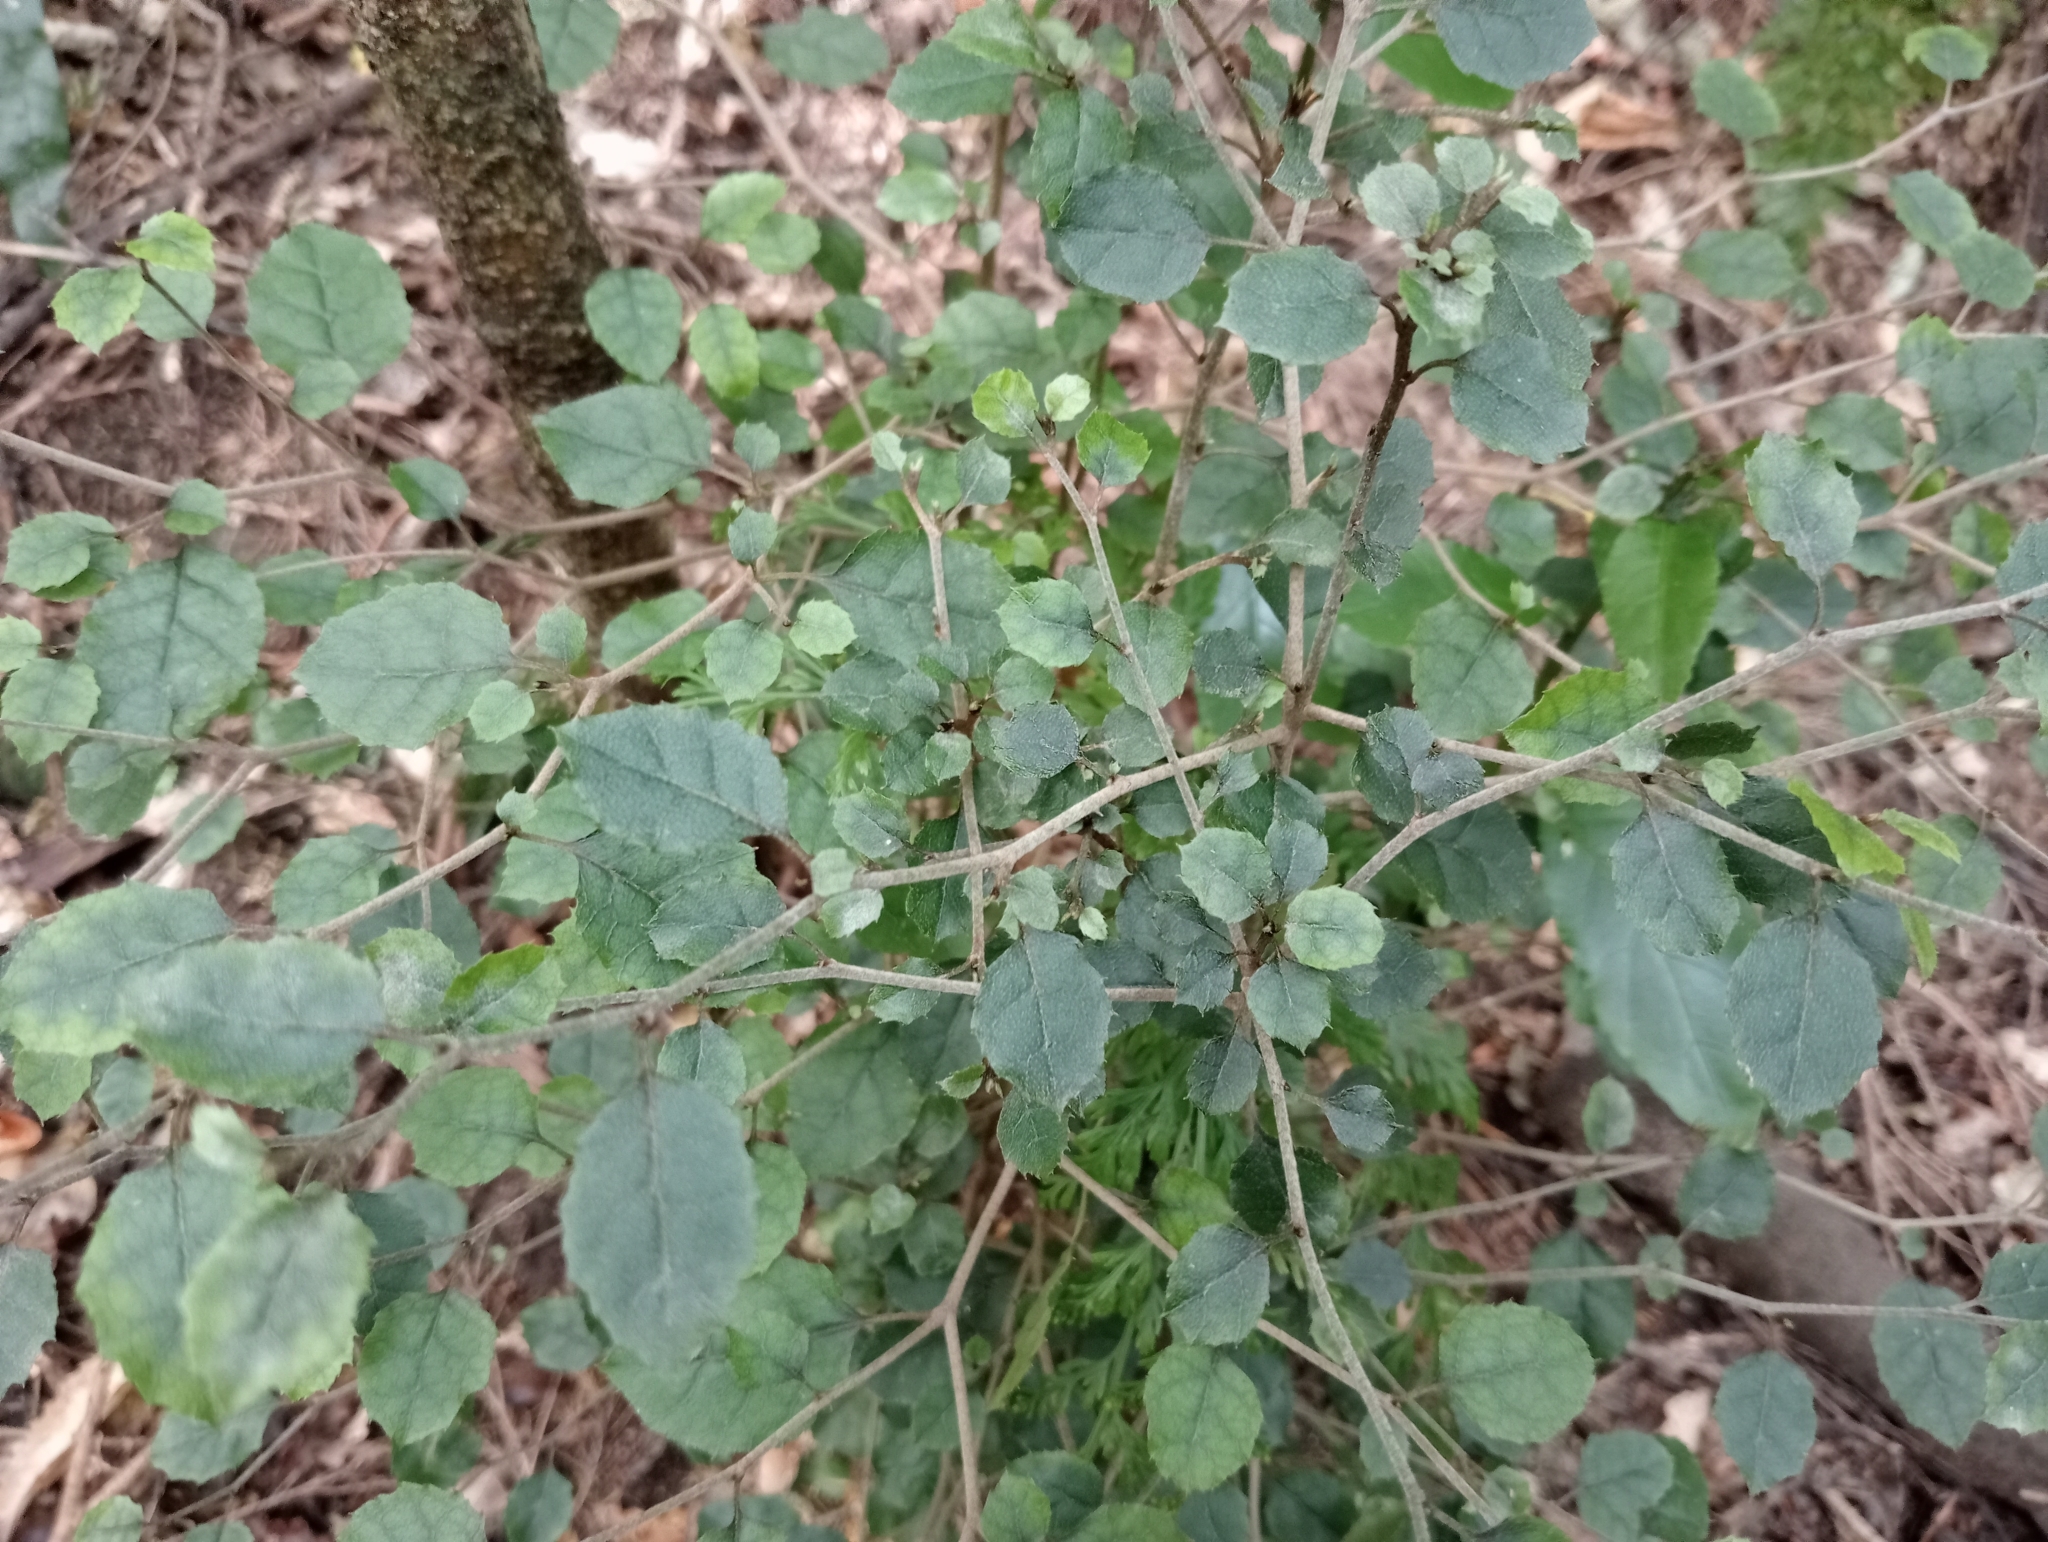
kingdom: Plantae
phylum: Tracheophyta
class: Magnoliopsida
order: Asterales
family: Rousseaceae
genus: Carpodetus
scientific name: Carpodetus serratus
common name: White mapau
